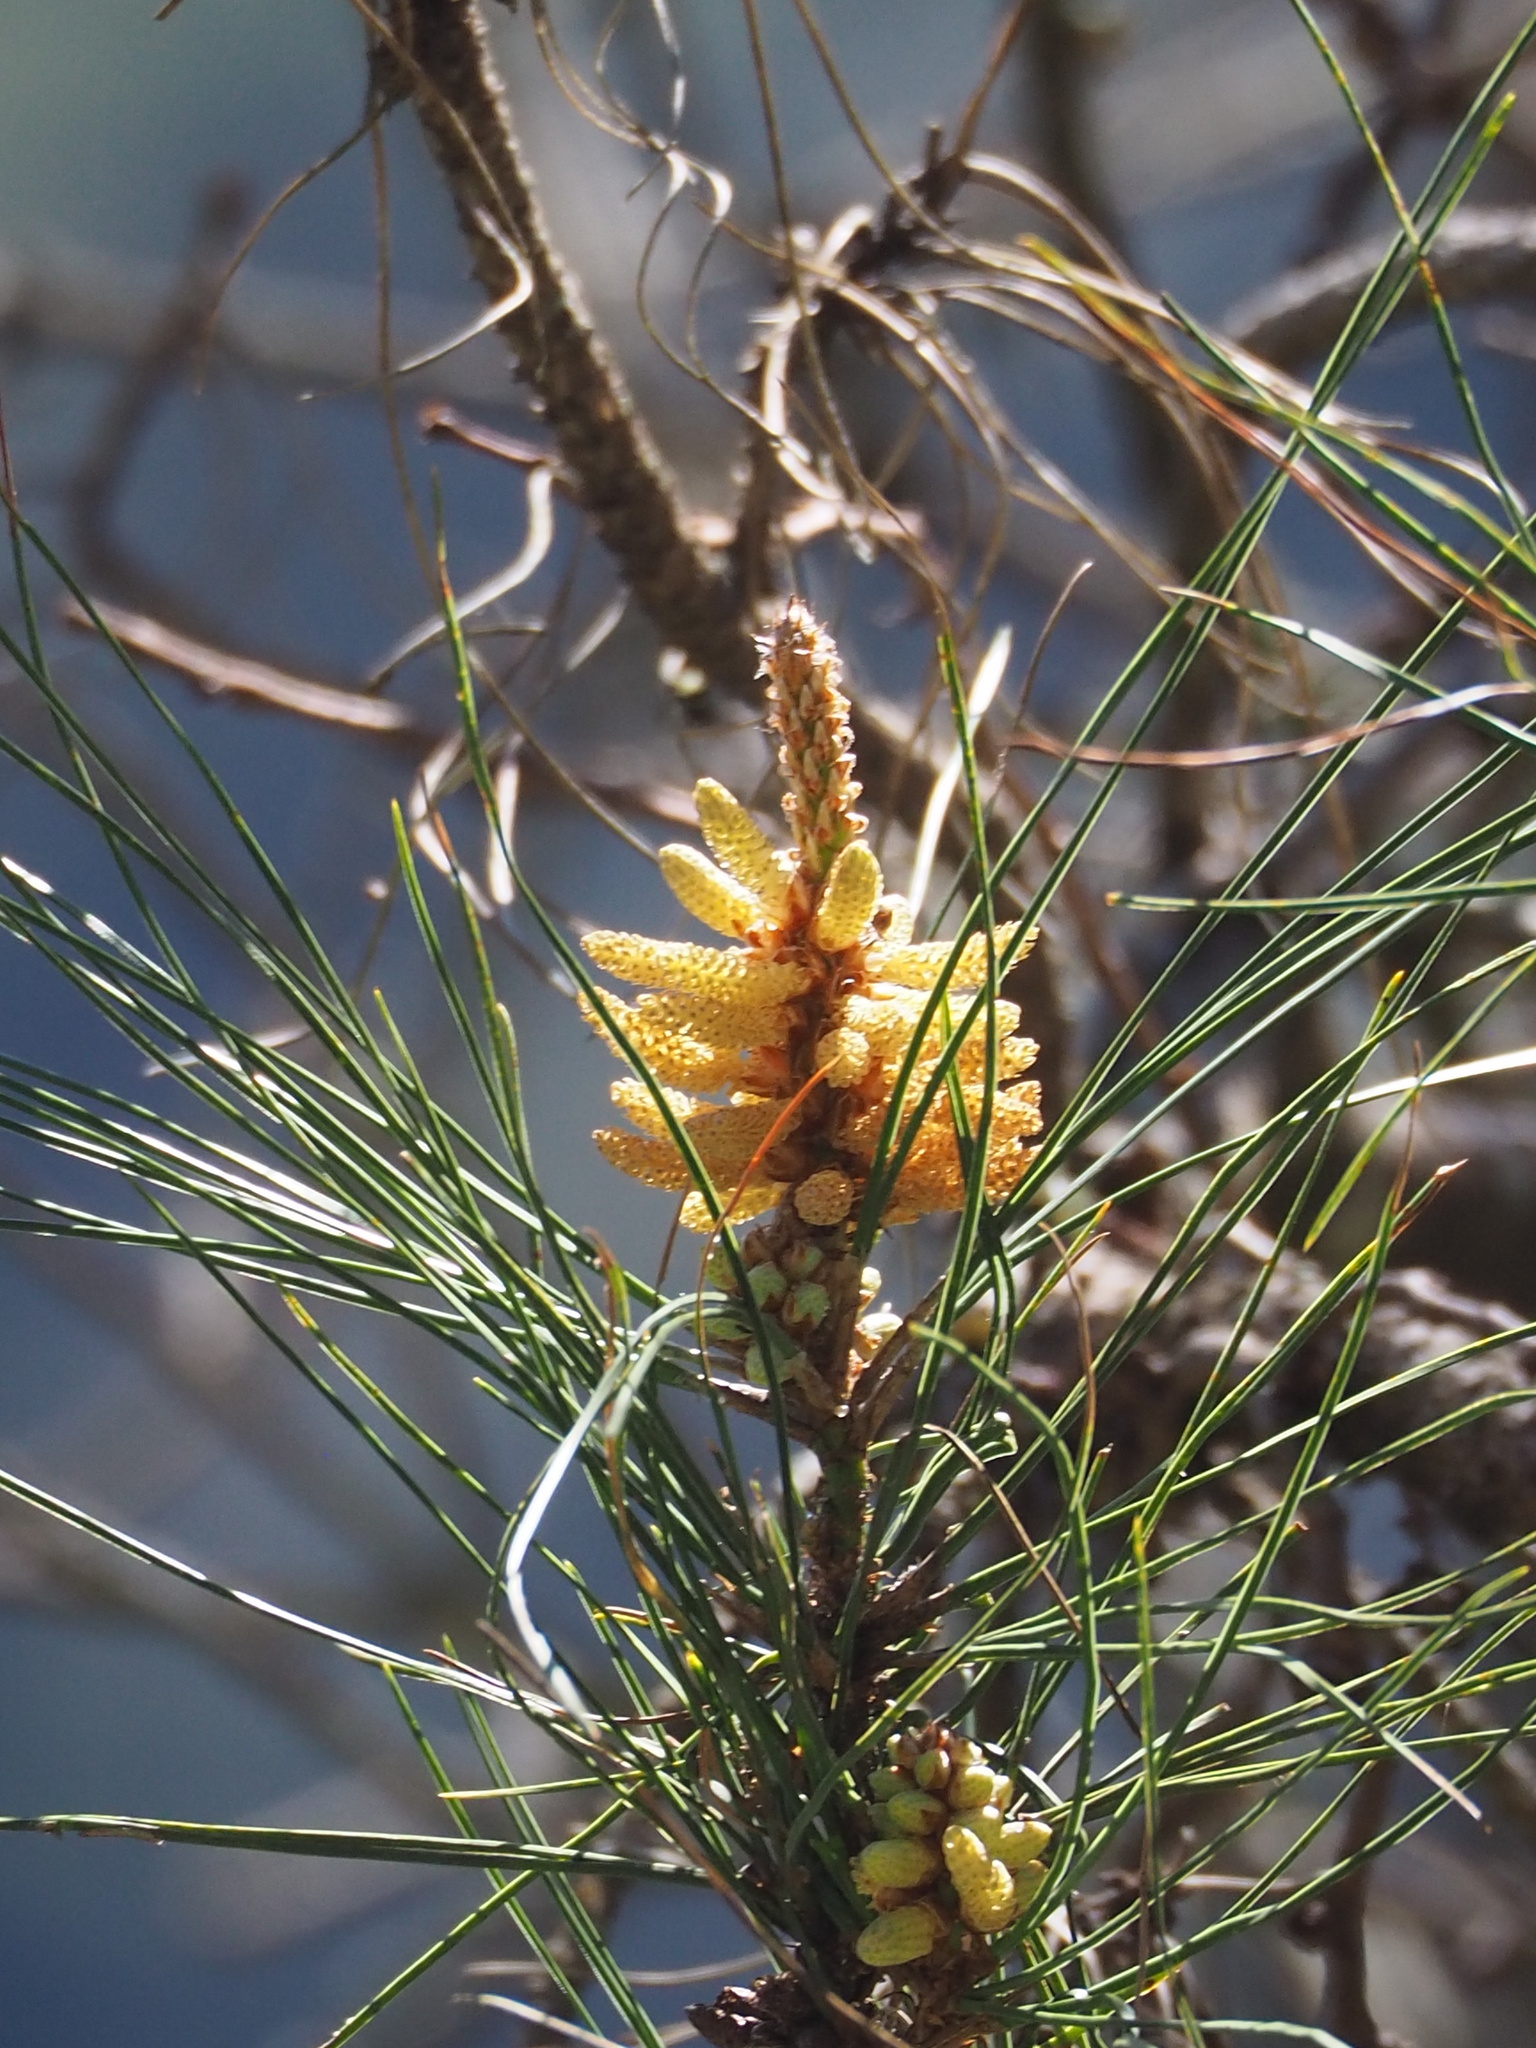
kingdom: Plantae
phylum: Tracheophyta
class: Pinopsida
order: Pinales
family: Pinaceae
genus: Pinus
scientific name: Pinus taiwanensis
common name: Formosa pine
